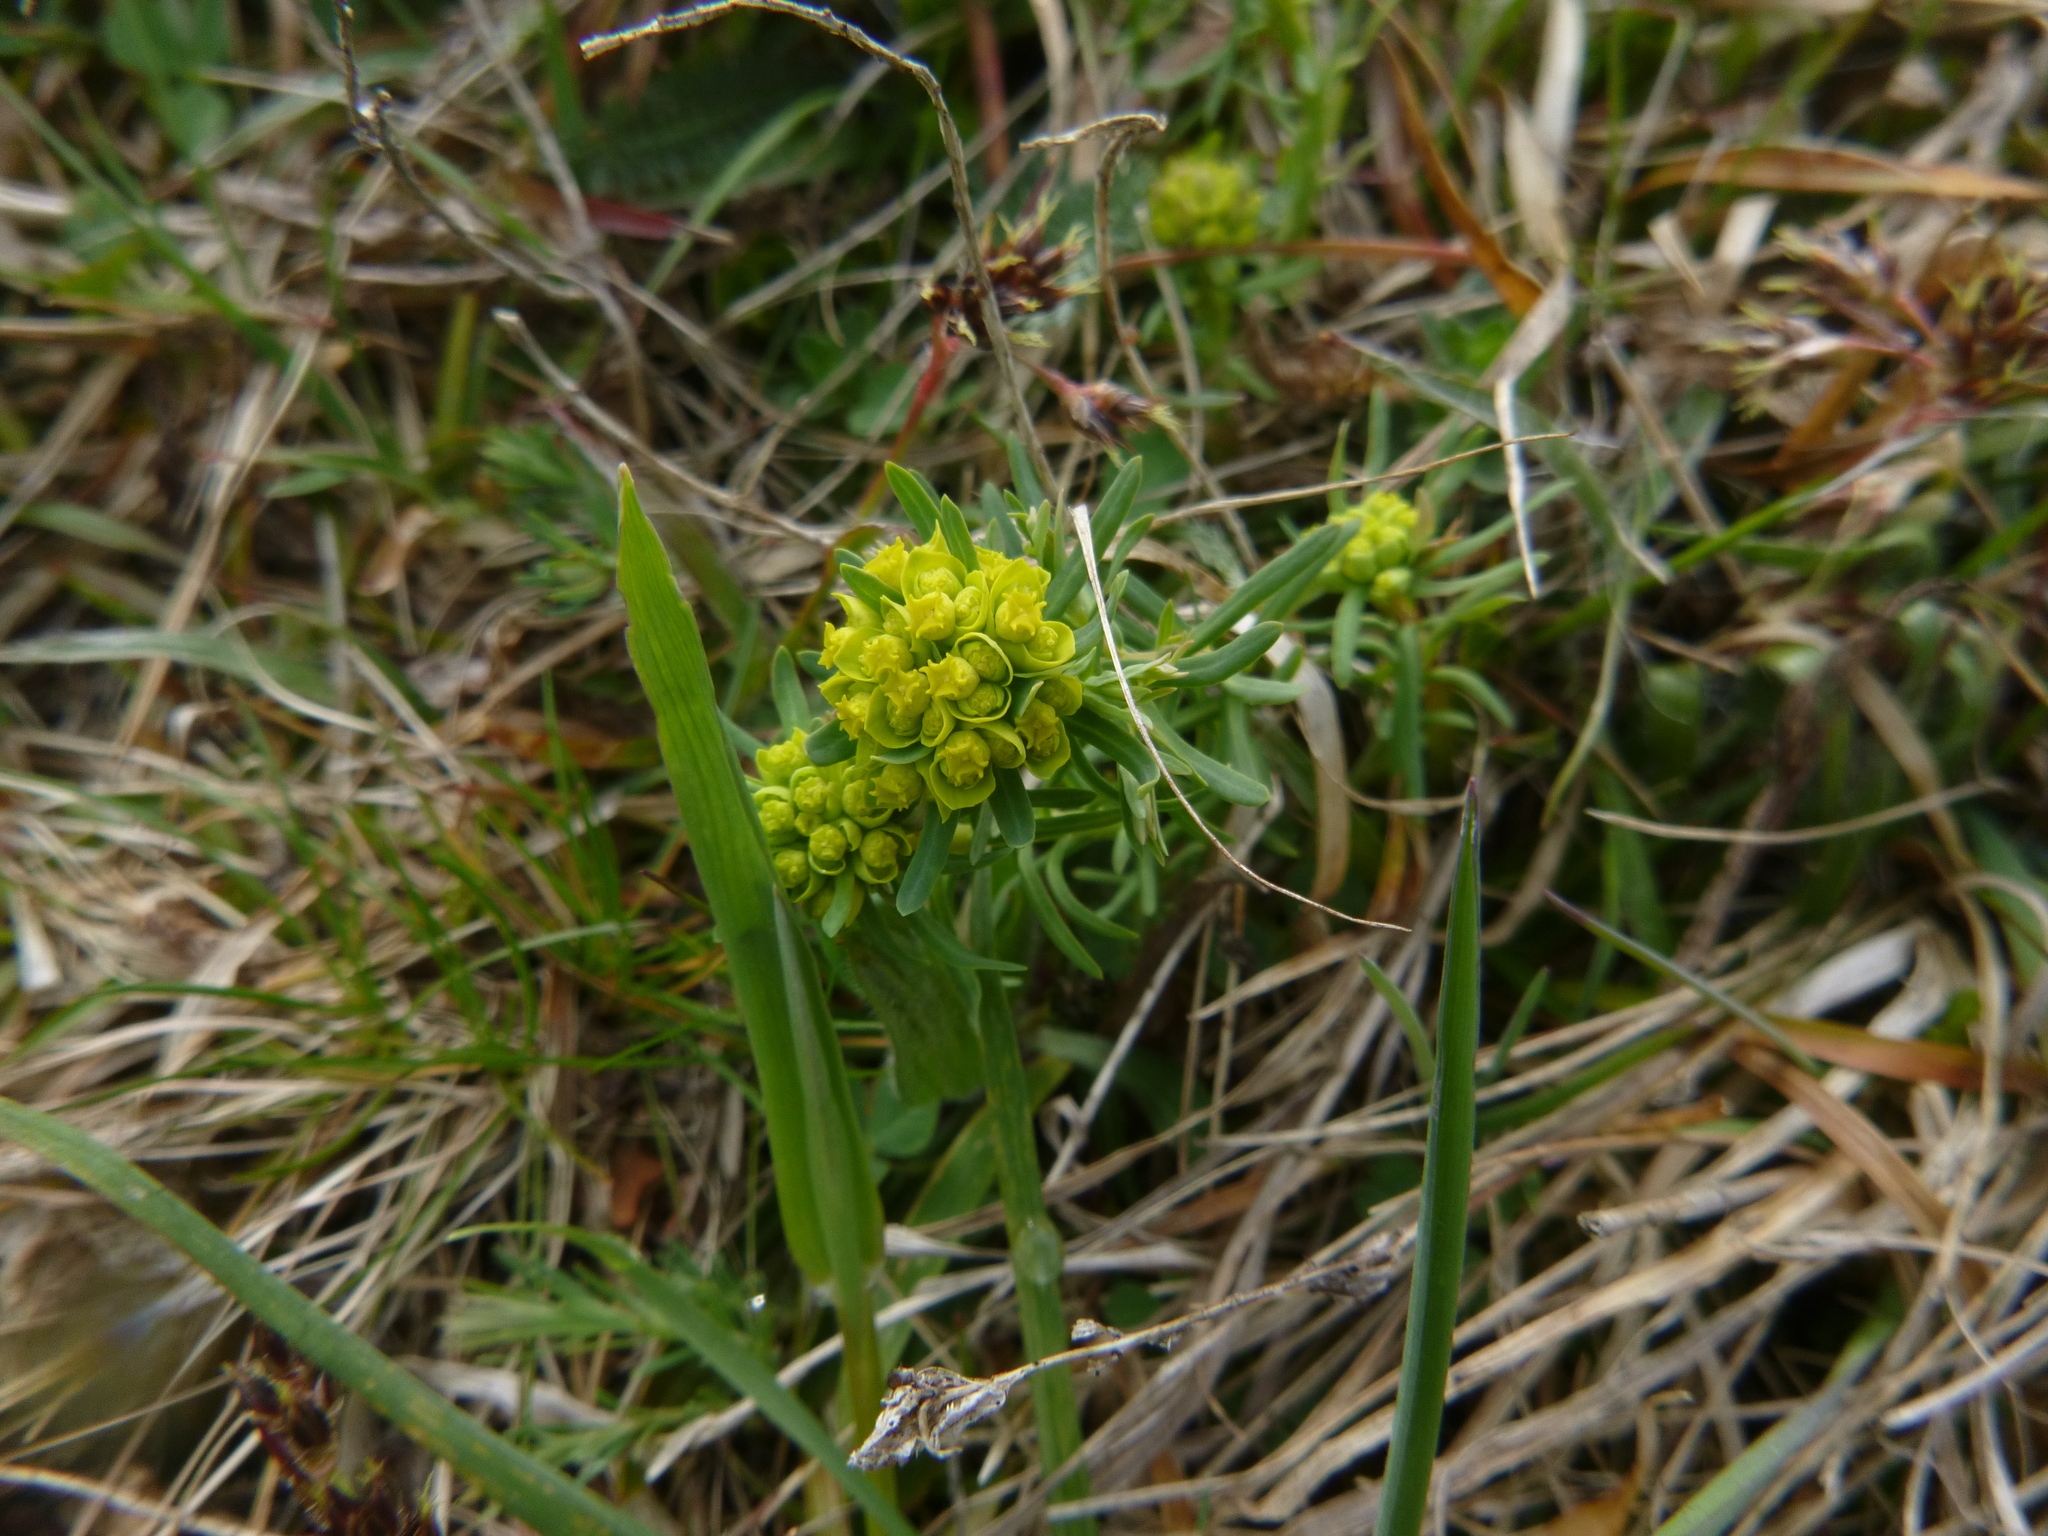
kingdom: Plantae
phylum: Tracheophyta
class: Magnoliopsida
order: Malpighiales
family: Euphorbiaceae
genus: Euphorbia
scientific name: Euphorbia cyparissias
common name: Cypress spurge
